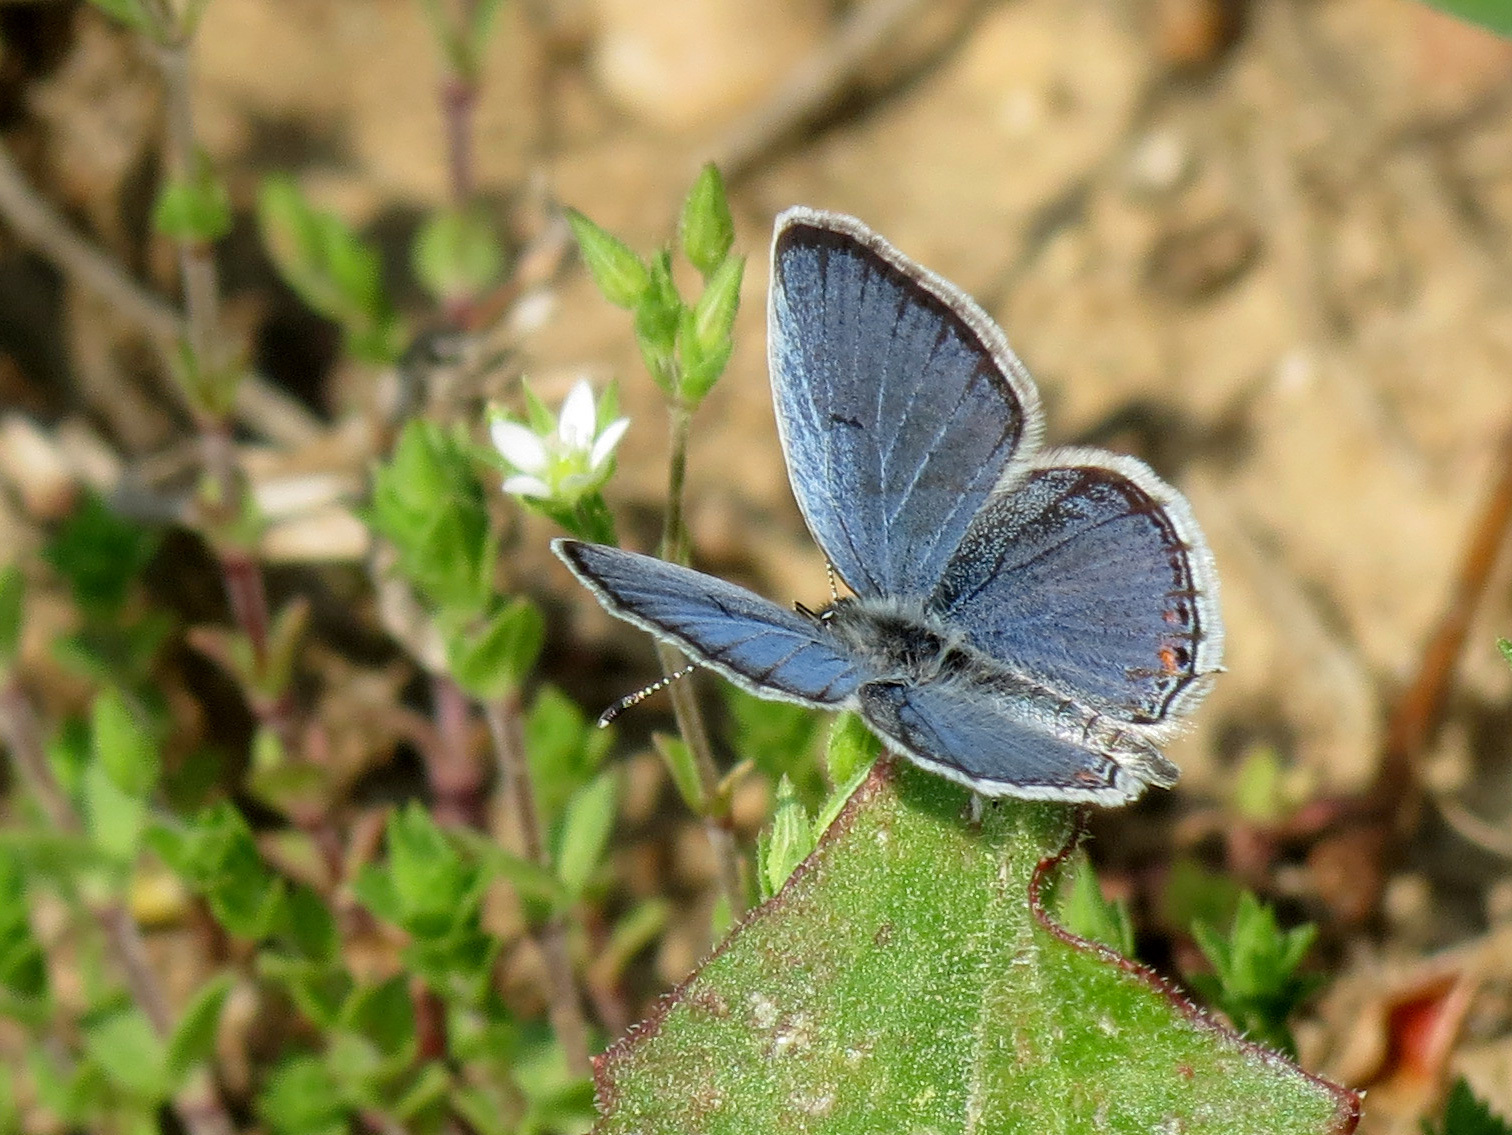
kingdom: Animalia
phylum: Arthropoda
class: Insecta
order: Lepidoptera
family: Lycaenidae
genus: Elkalyce
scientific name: Elkalyce comyntas
